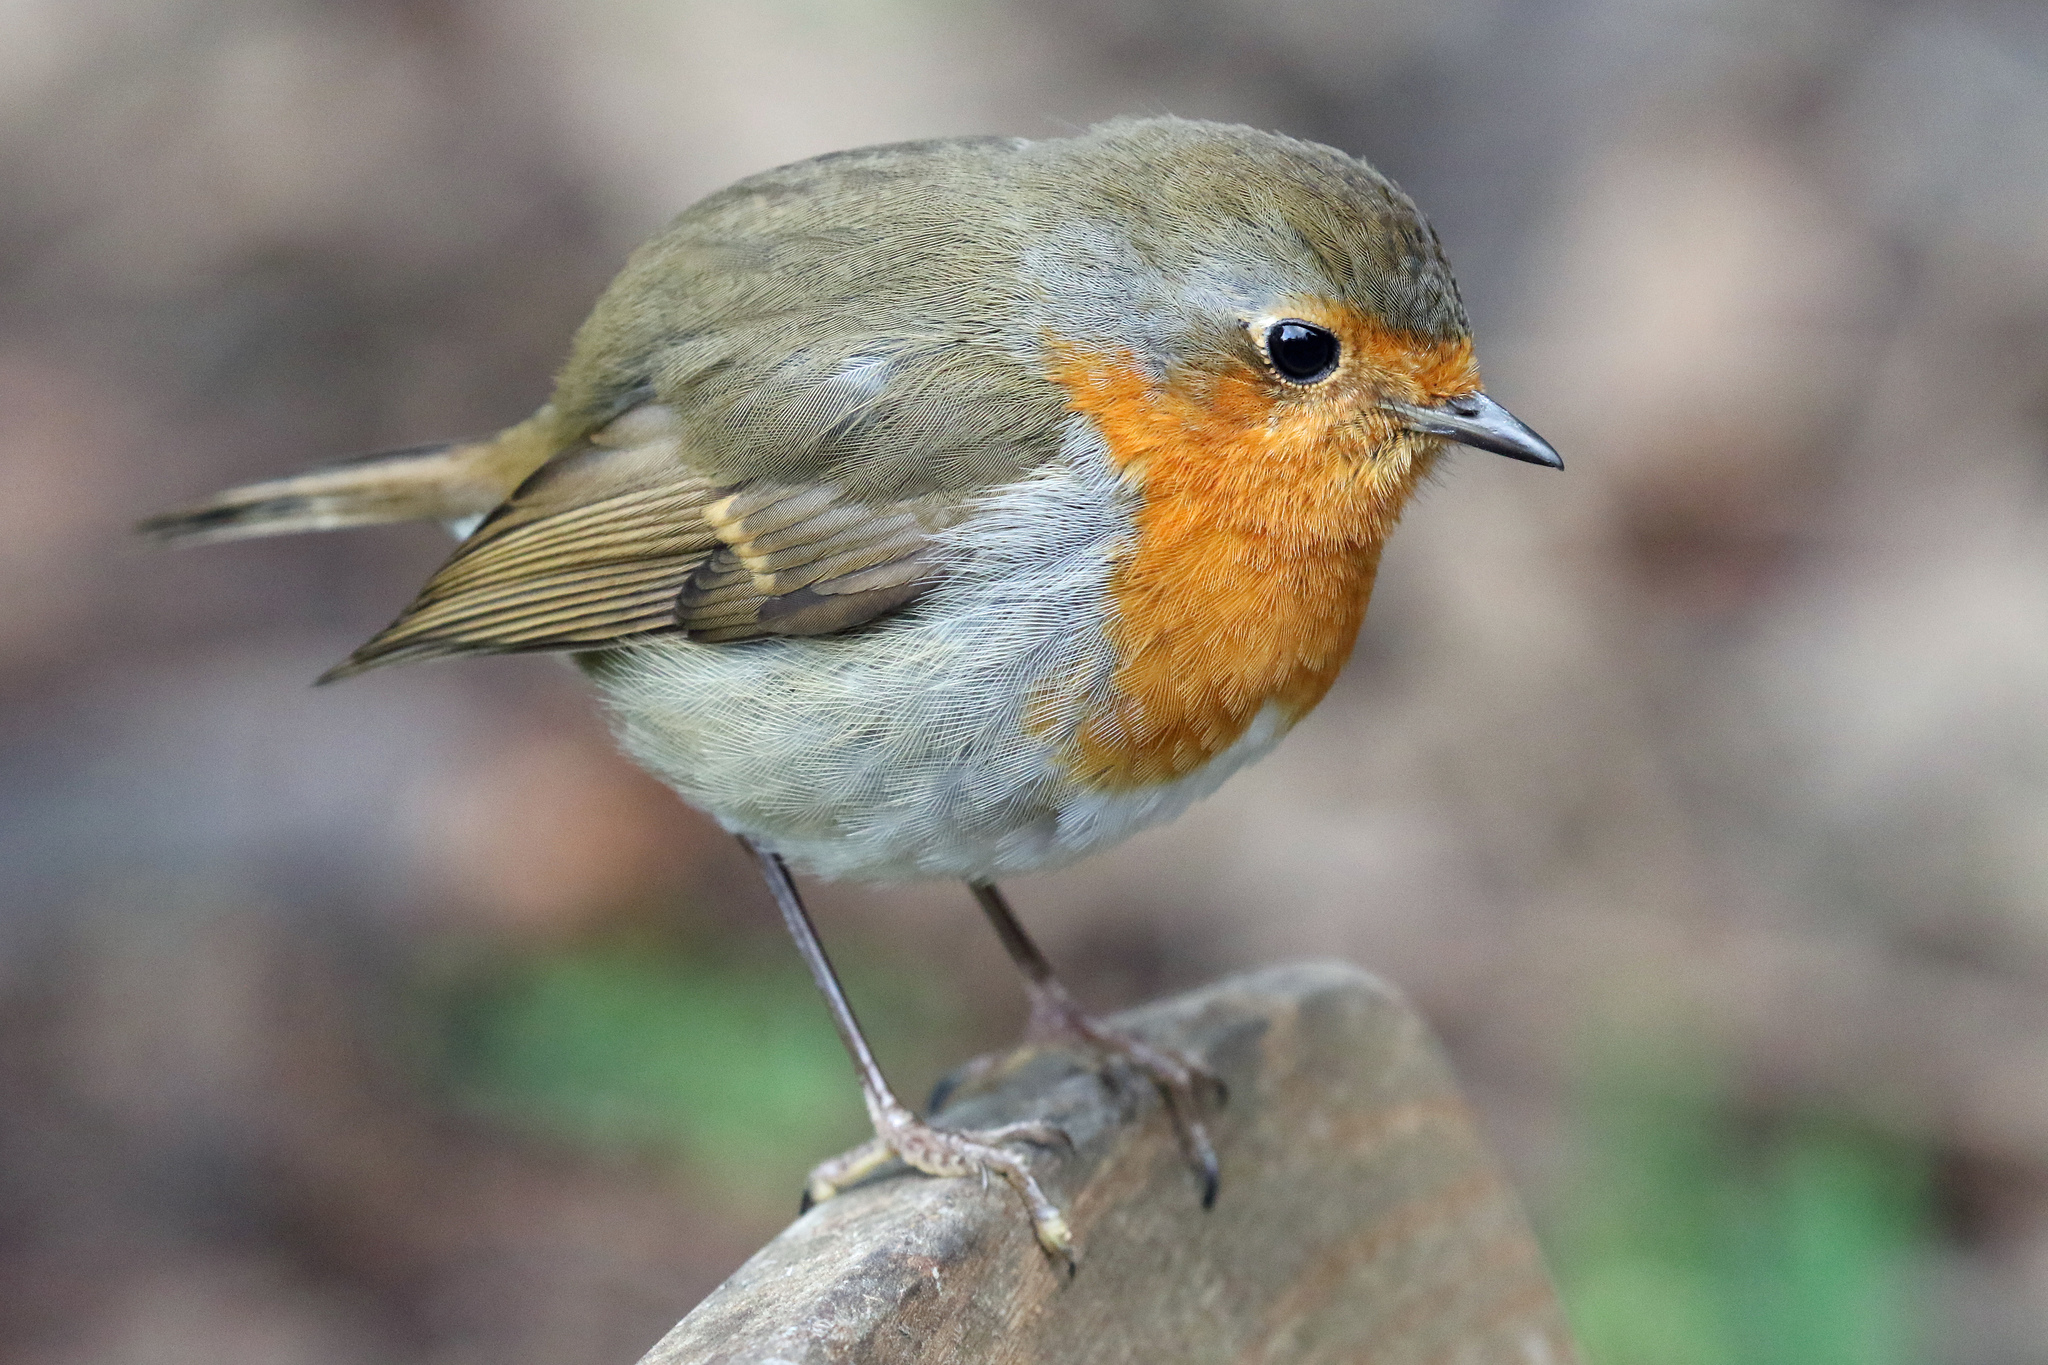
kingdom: Animalia
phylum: Chordata
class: Aves
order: Passeriformes
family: Muscicapidae
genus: Erithacus
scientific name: Erithacus rubecula
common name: European robin
